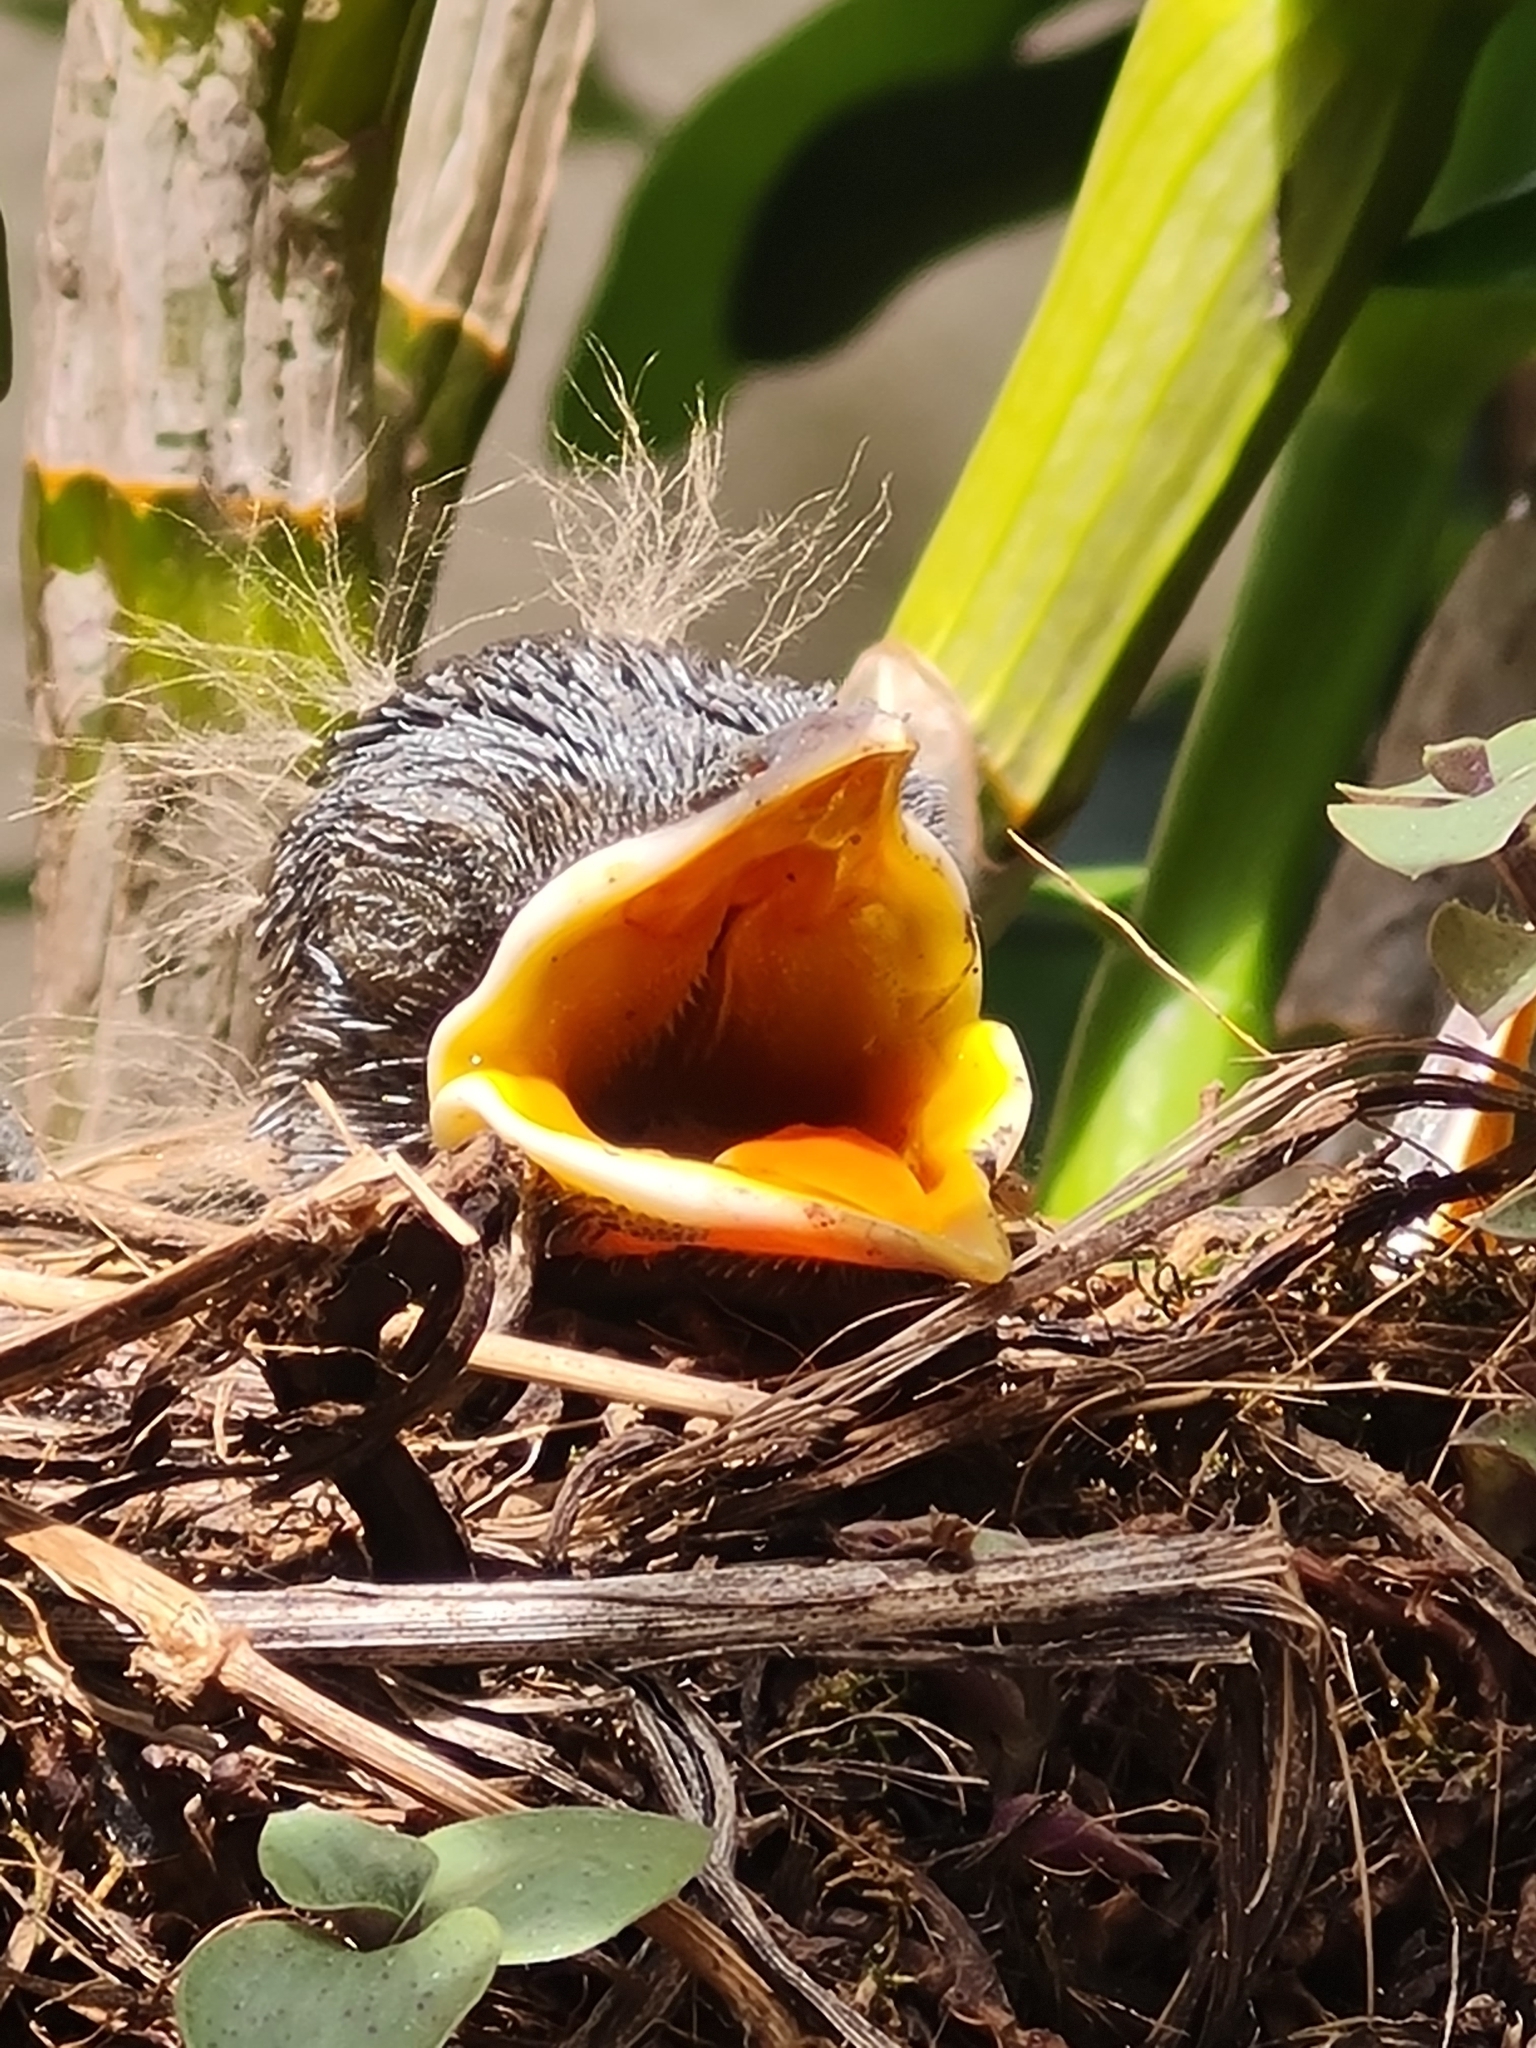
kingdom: Animalia
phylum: Chordata
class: Aves
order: Passeriformes
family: Turdidae
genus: Turdus
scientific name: Turdus rufiventris
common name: Rufous-bellied thrush
